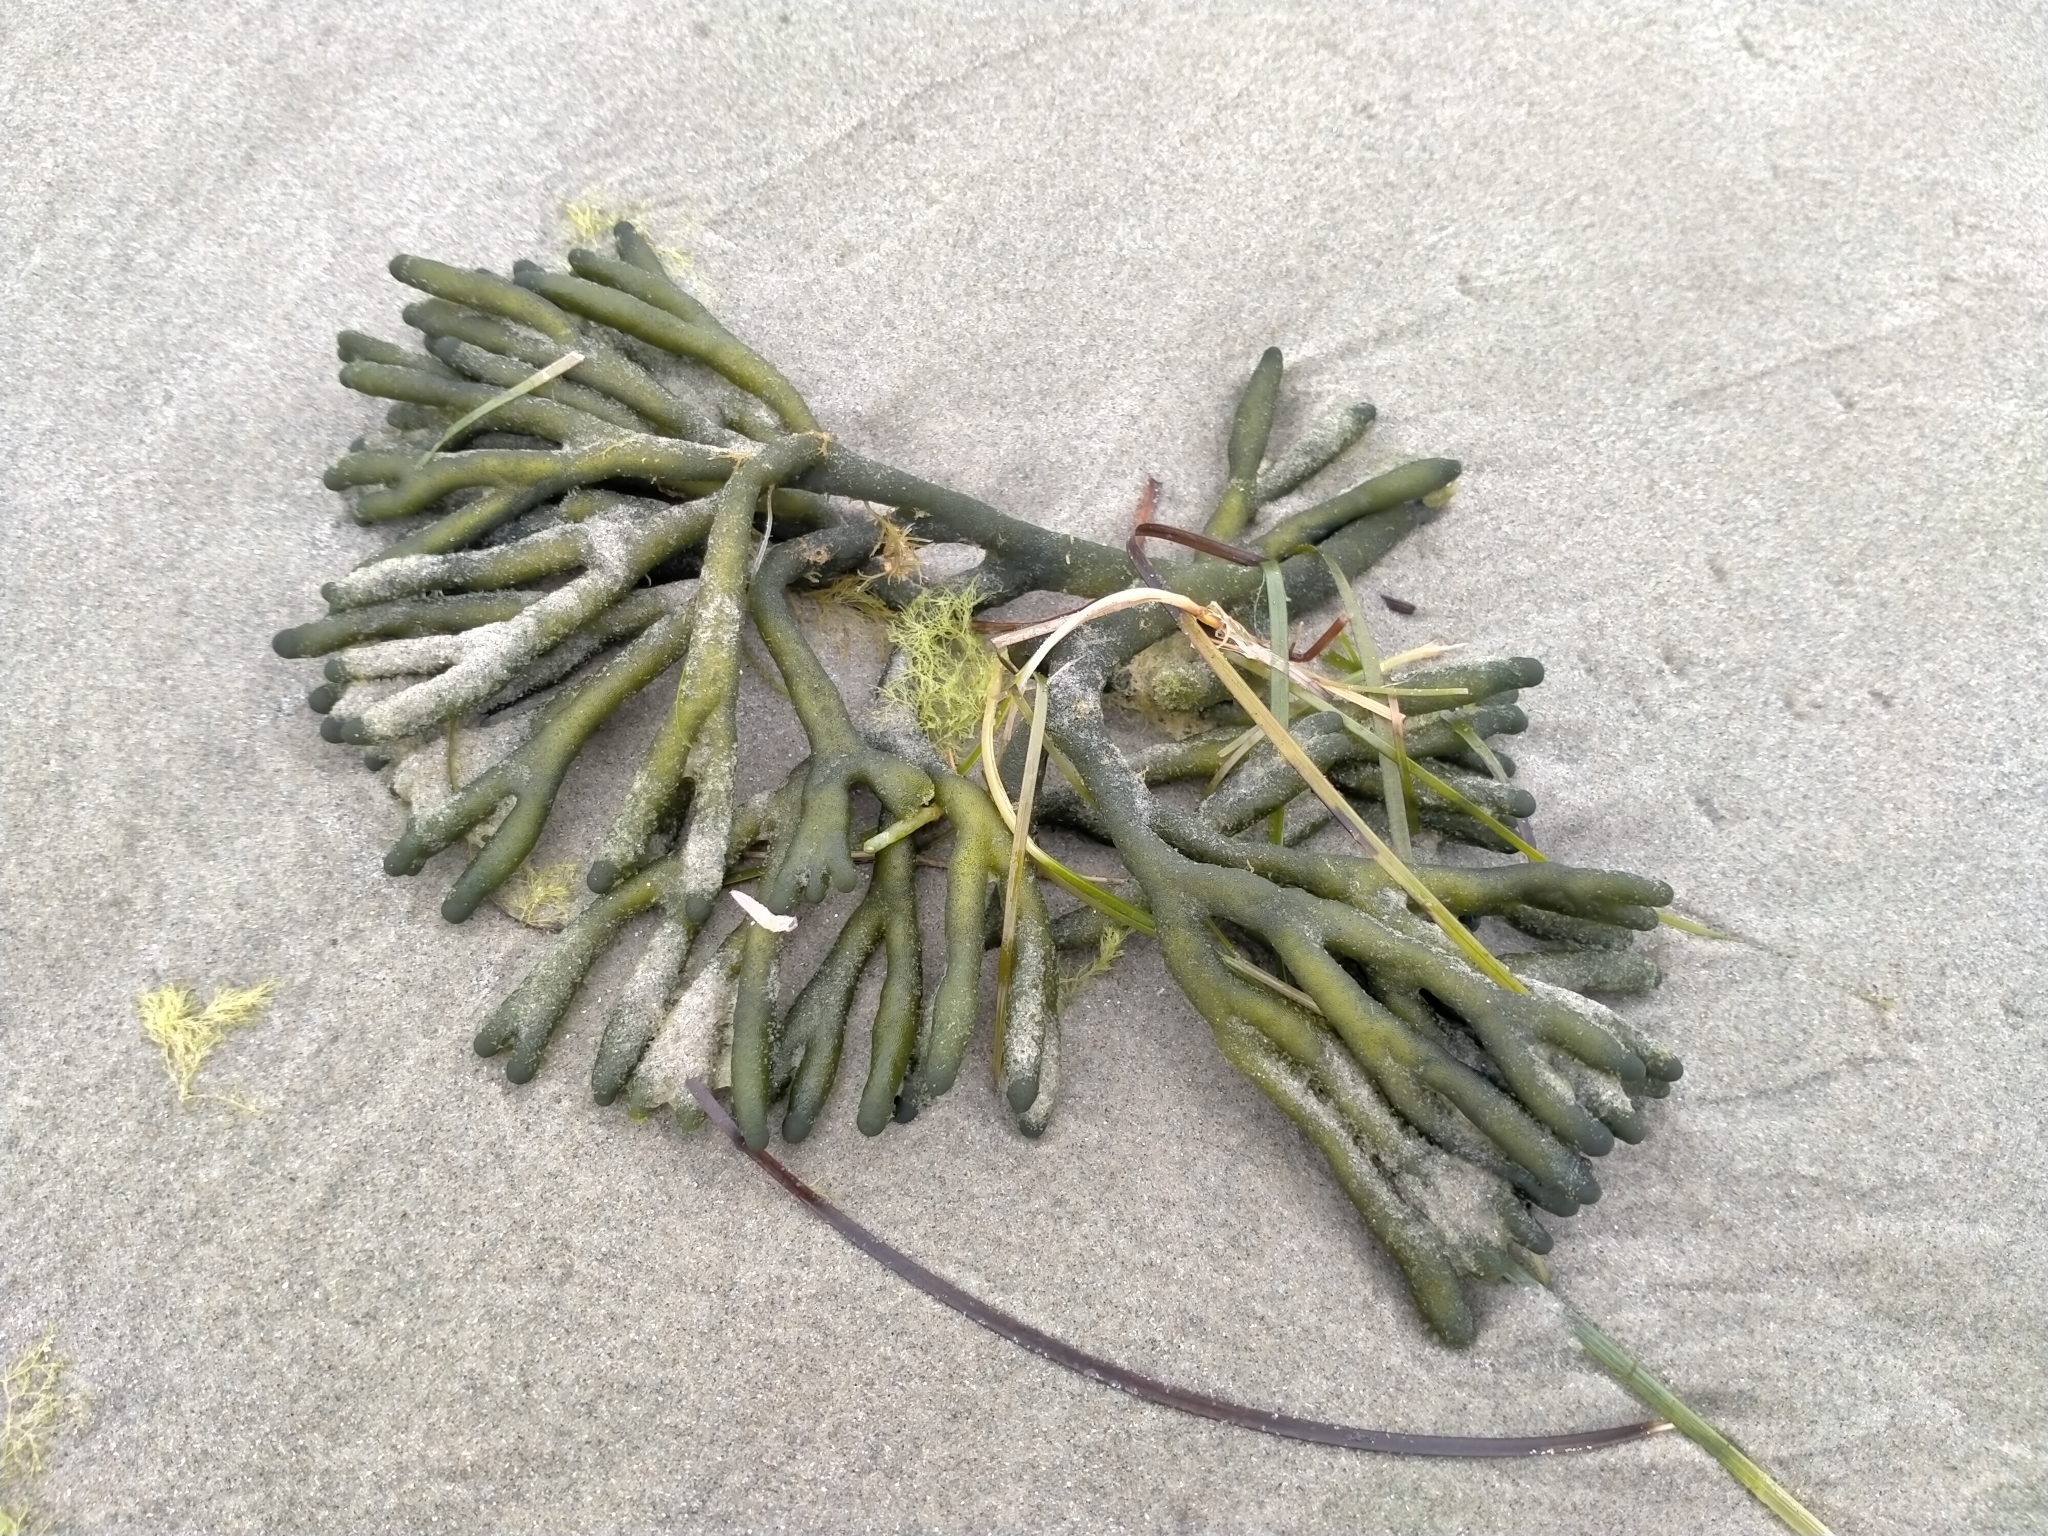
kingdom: Plantae
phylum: Chlorophyta
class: Ulvophyceae
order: Bryopsidales
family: Codiaceae
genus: Codium
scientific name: Codium fragile
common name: Dead man's fingers
